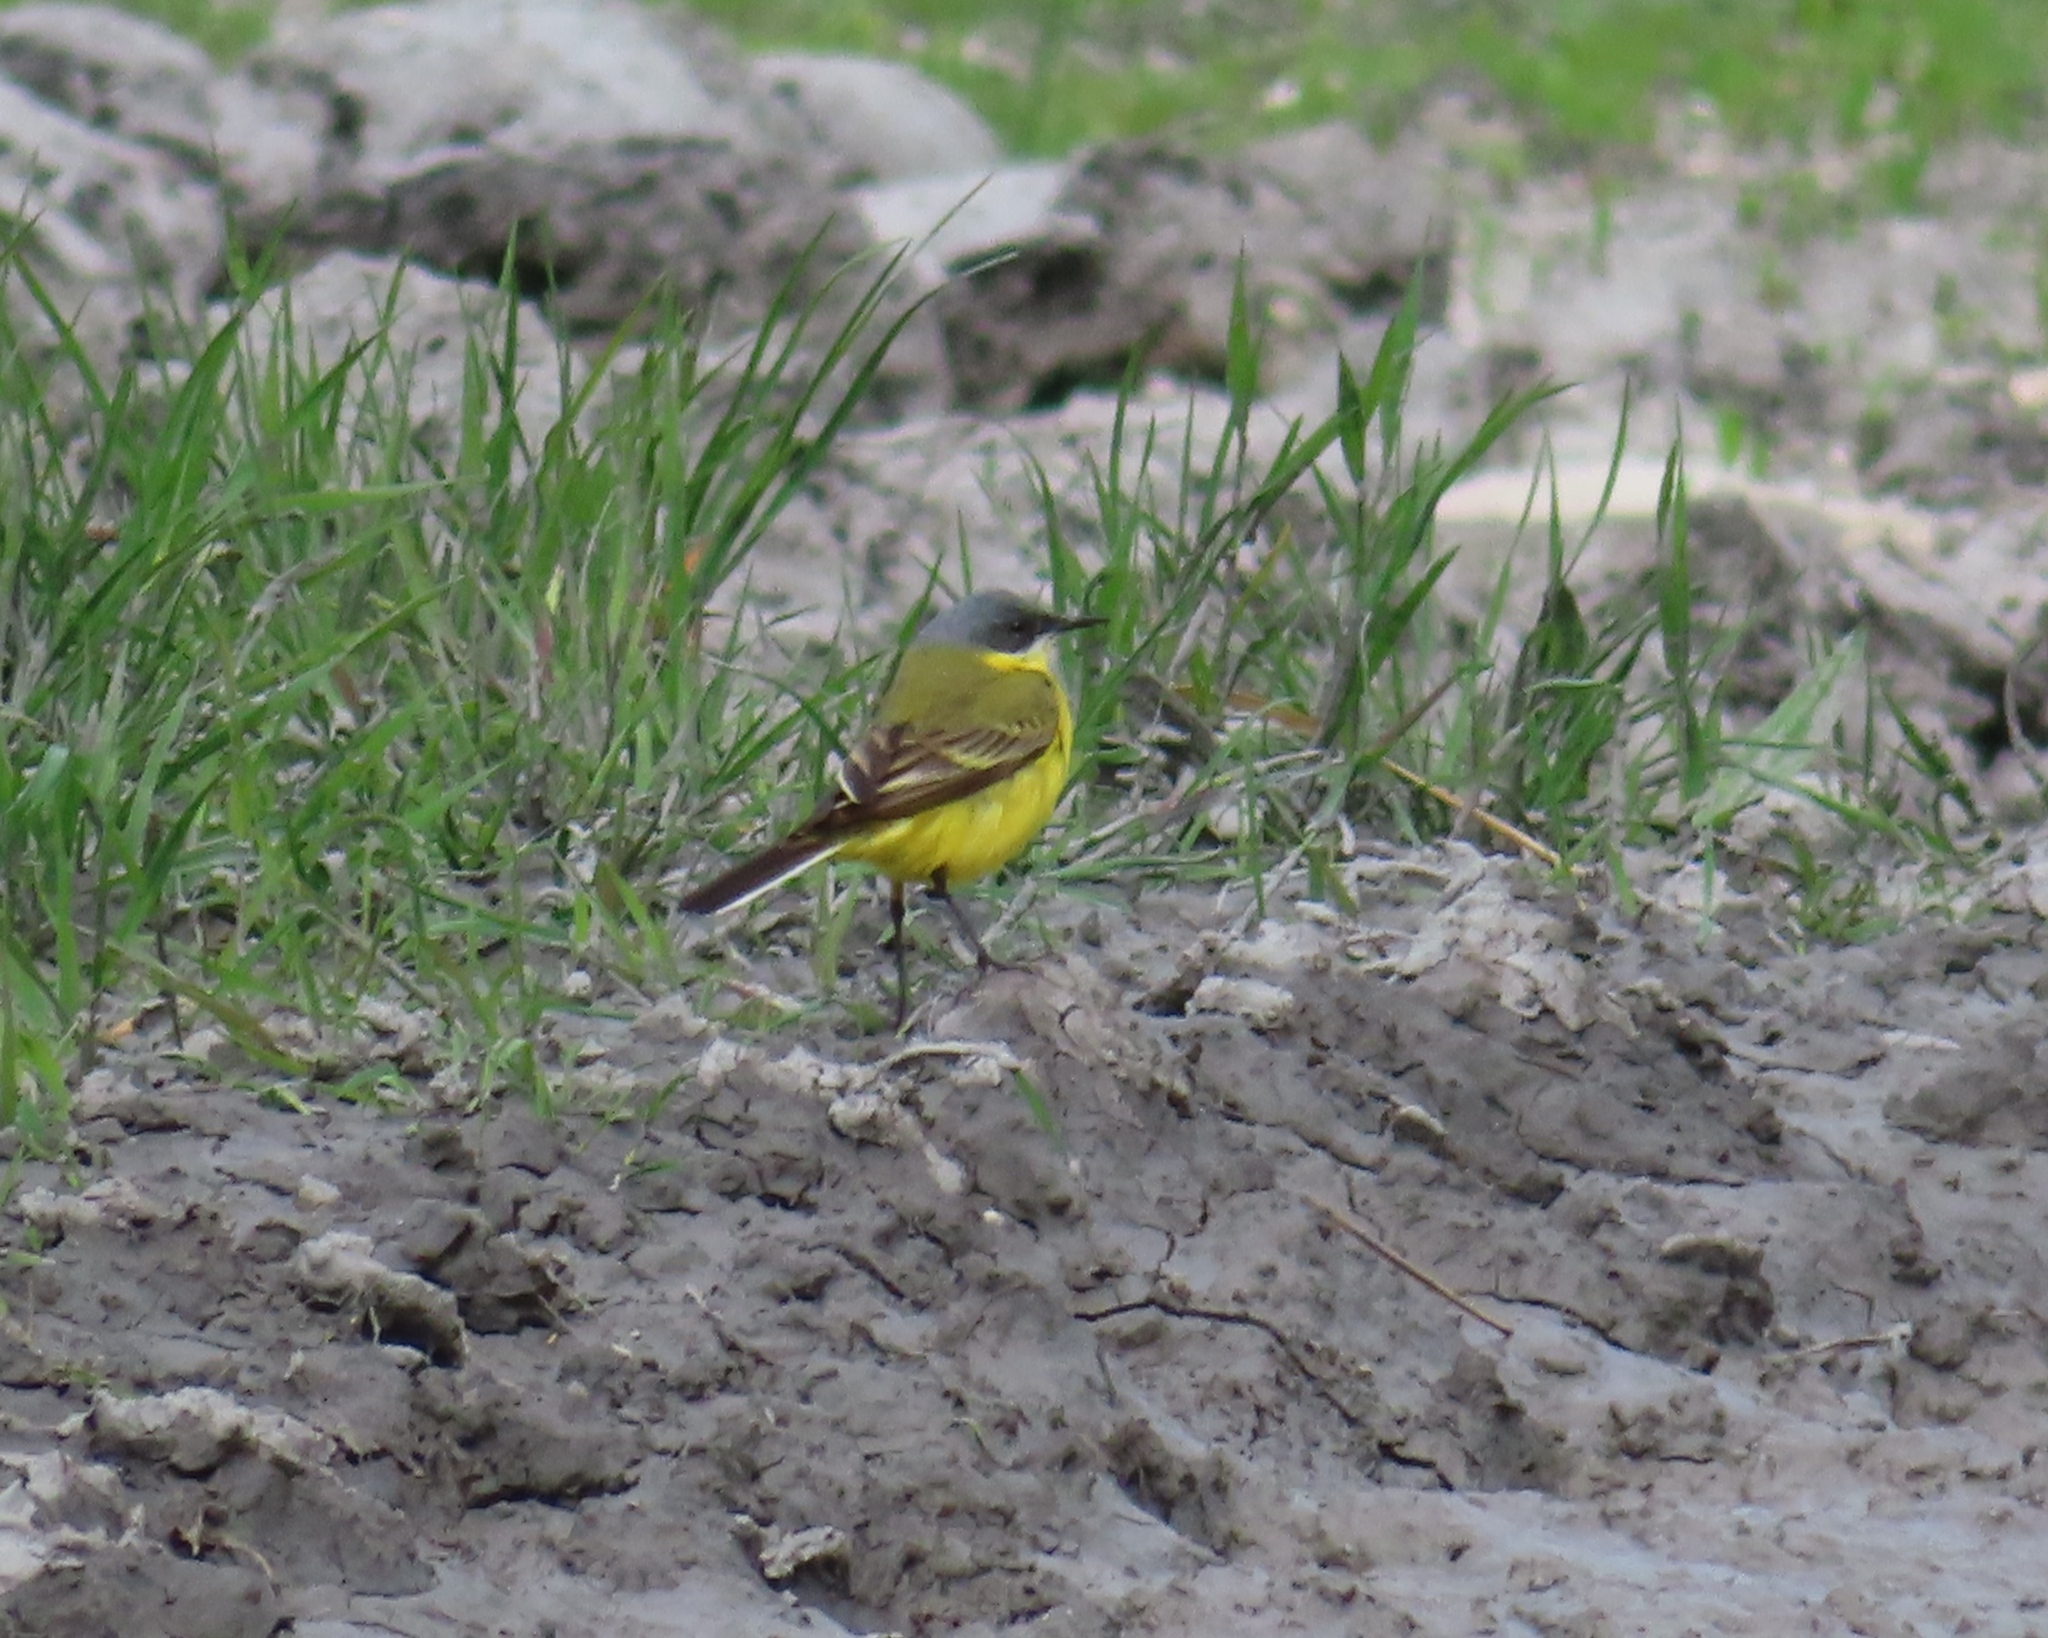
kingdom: Animalia
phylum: Chordata
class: Aves
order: Passeriformes
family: Motacillidae
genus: Motacilla
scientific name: Motacilla flava
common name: Western yellow wagtail
